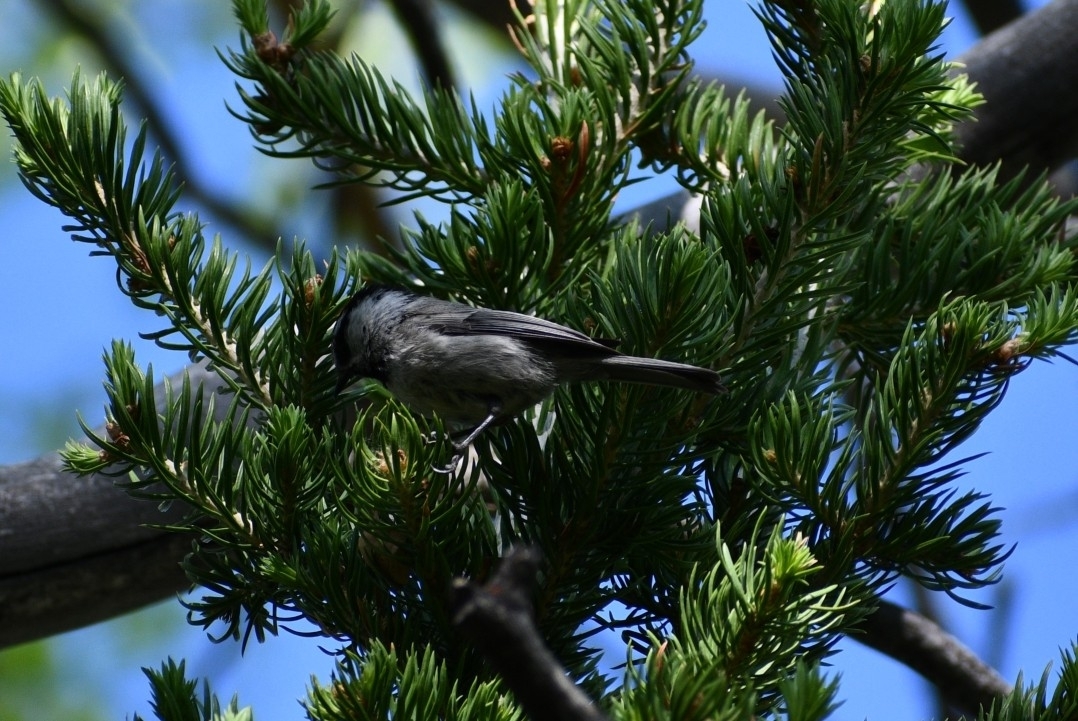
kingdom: Animalia
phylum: Chordata
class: Aves
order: Passeriformes
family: Paridae
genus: Poecile
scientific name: Poecile gambeli
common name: Mountain chickadee
